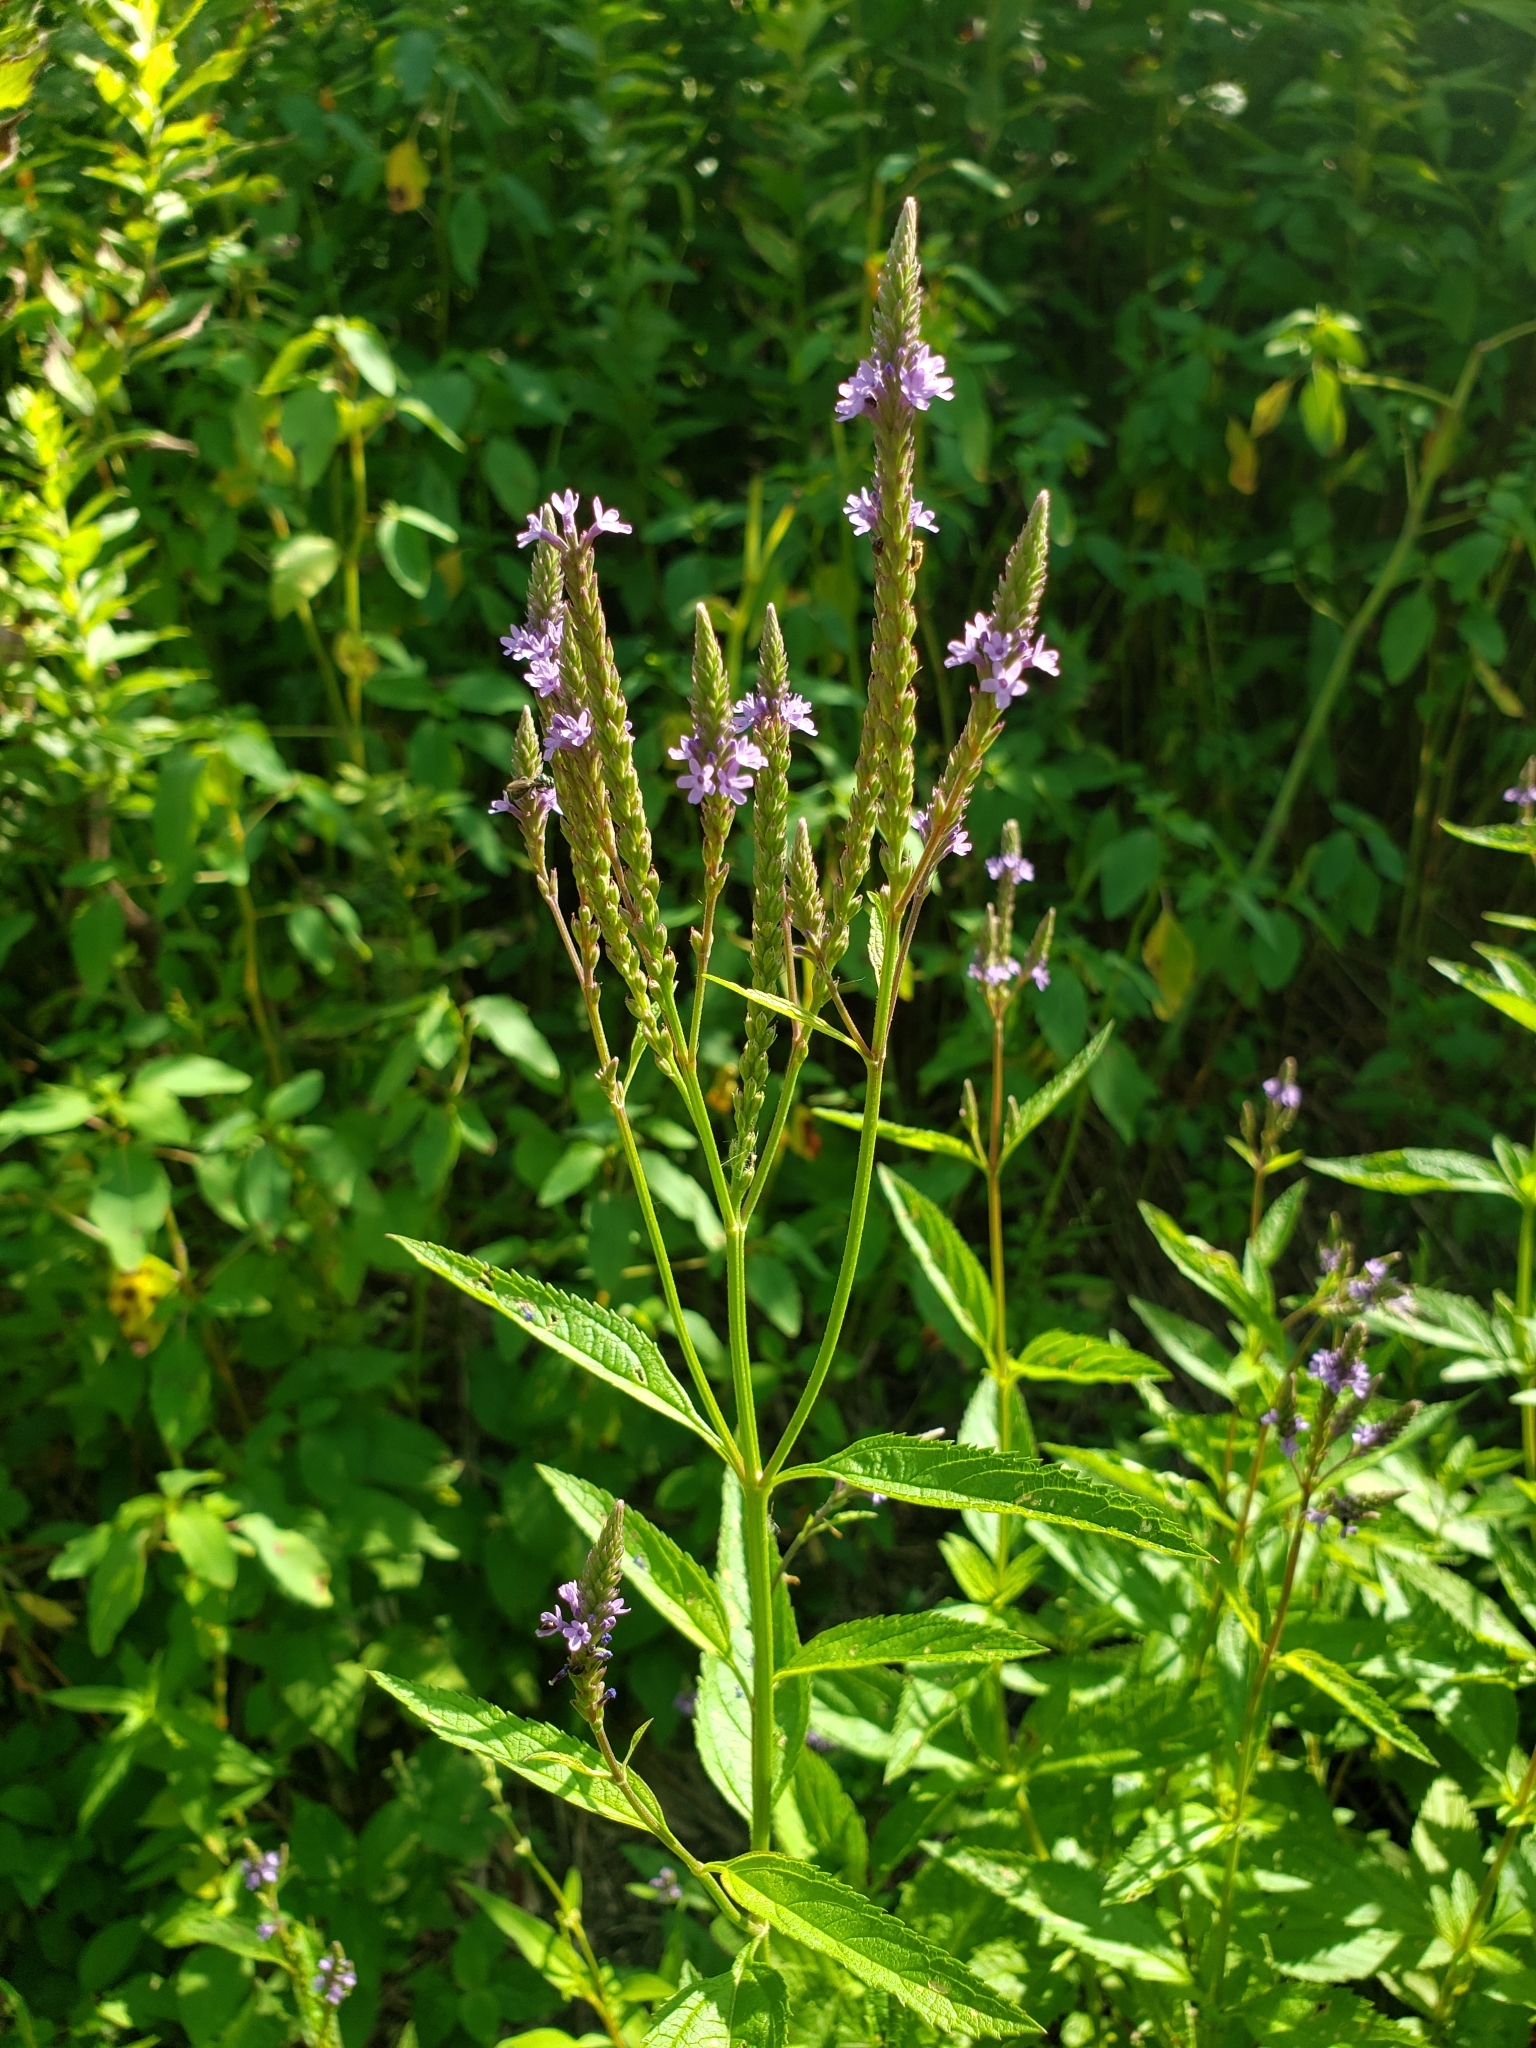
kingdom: Plantae
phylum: Tracheophyta
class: Magnoliopsida
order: Lamiales
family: Verbenaceae
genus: Verbena
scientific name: Verbena hastata
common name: American blue vervain
